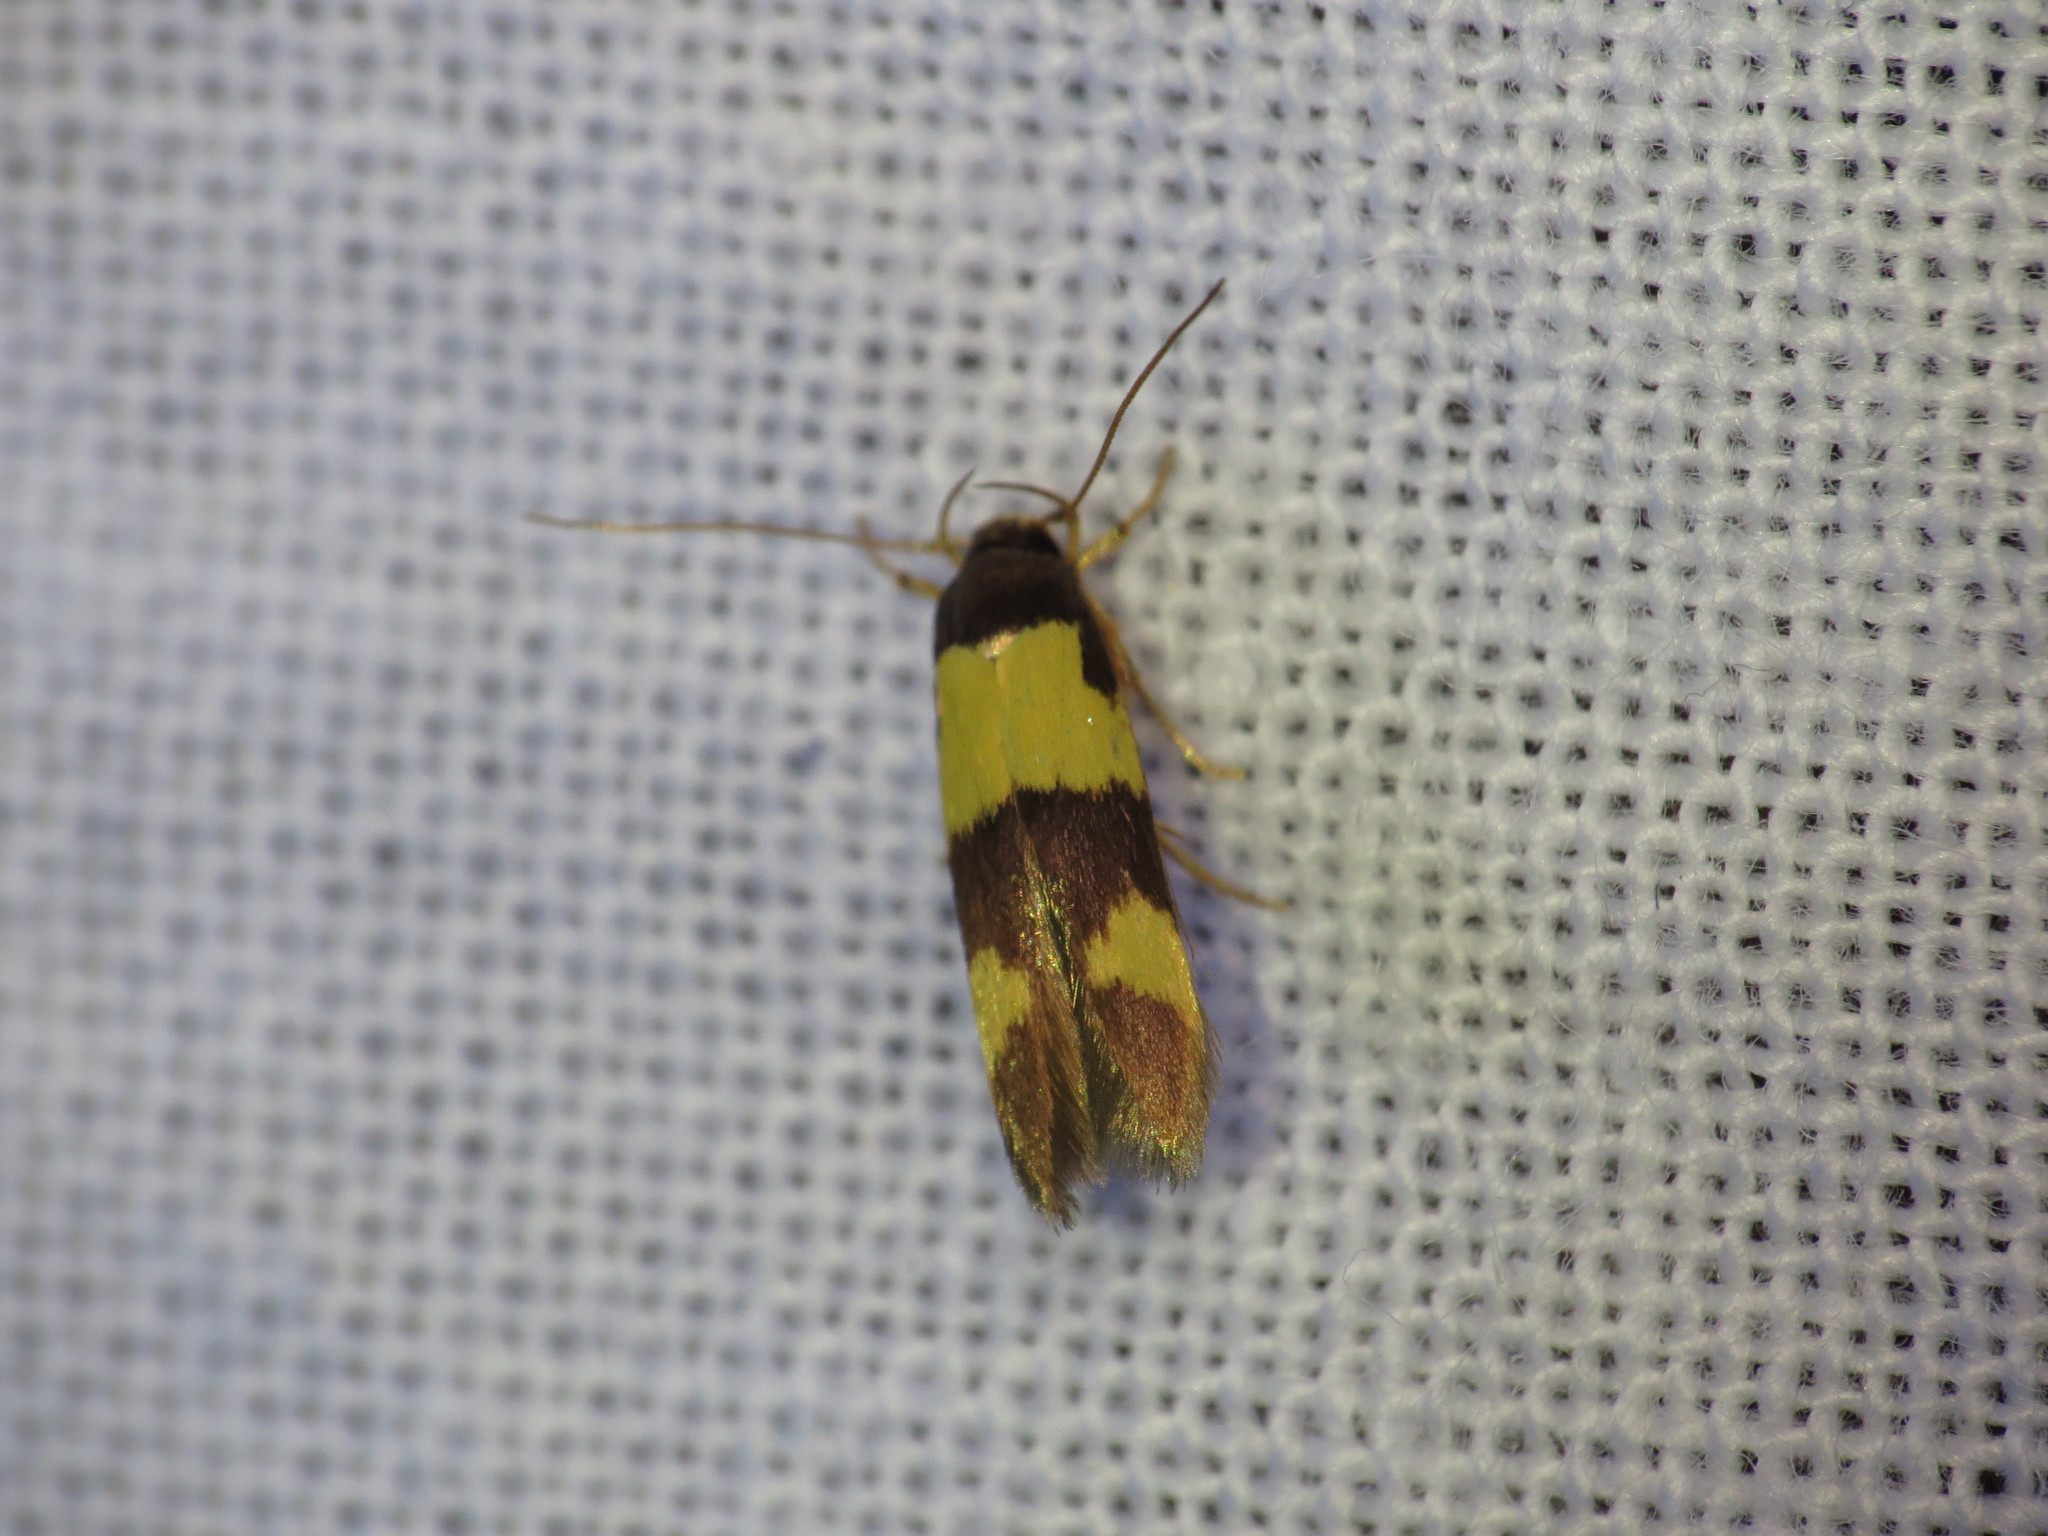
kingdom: Animalia
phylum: Arthropoda
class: Insecta
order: Lepidoptera
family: Stathmopodidae
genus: Stathmopoda
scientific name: Stathmopoda mimantha
